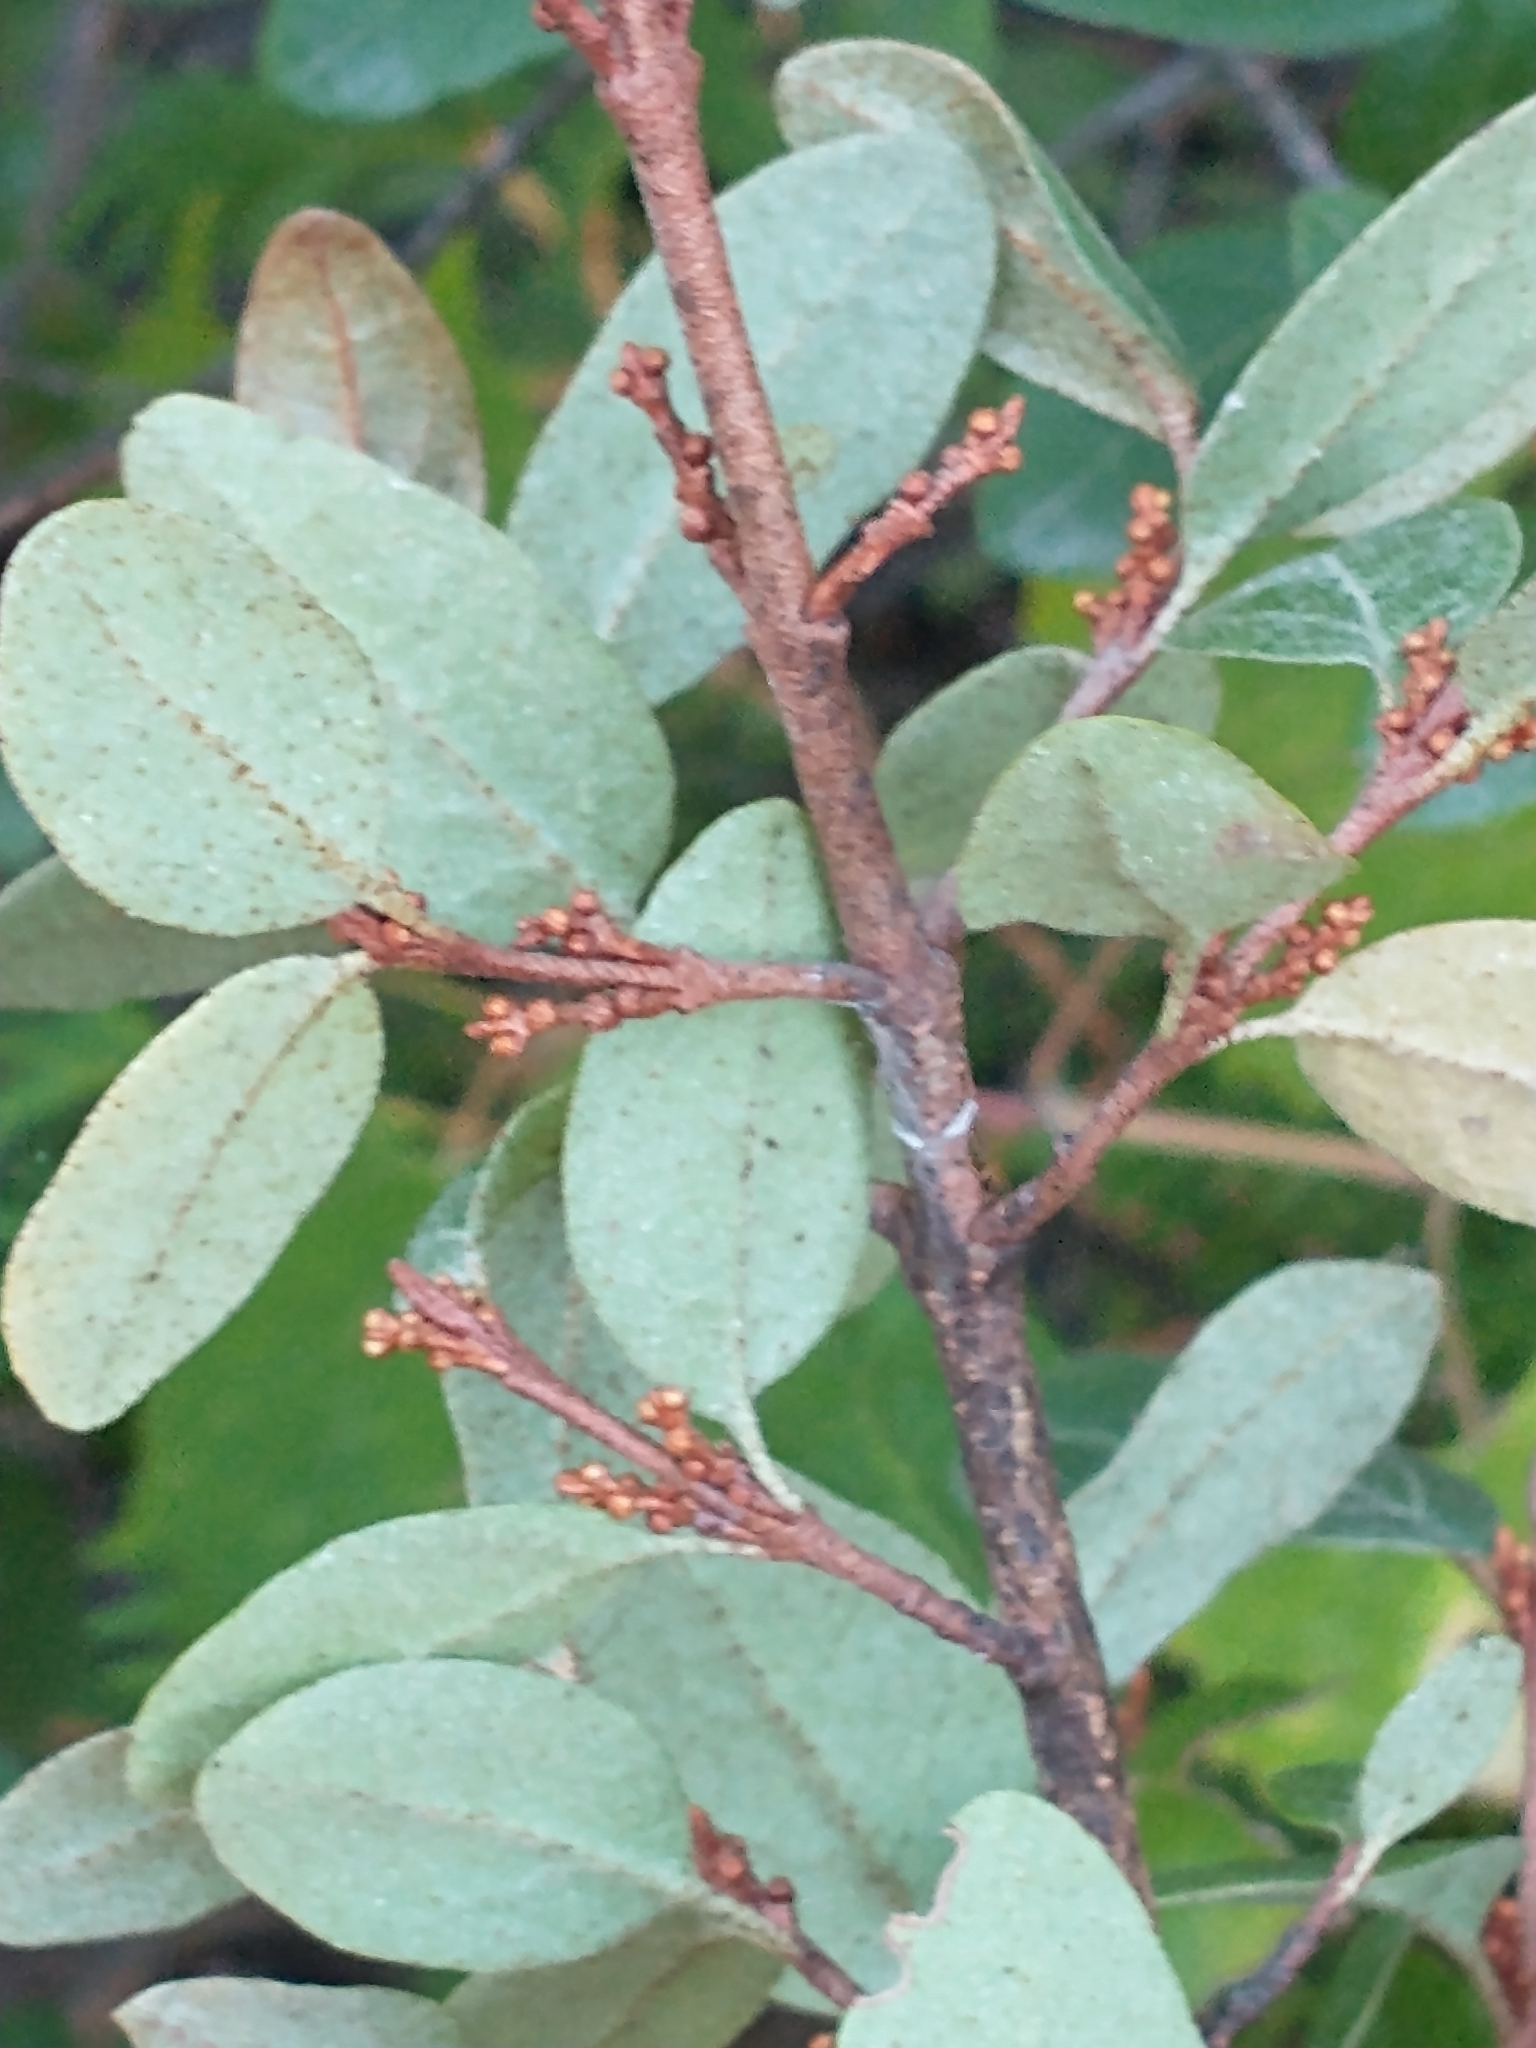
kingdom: Plantae
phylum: Tracheophyta
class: Magnoliopsida
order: Rosales
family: Elaeagnaceae
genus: Shepherdia
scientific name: Shepherdia canadensis
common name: Soapberry
